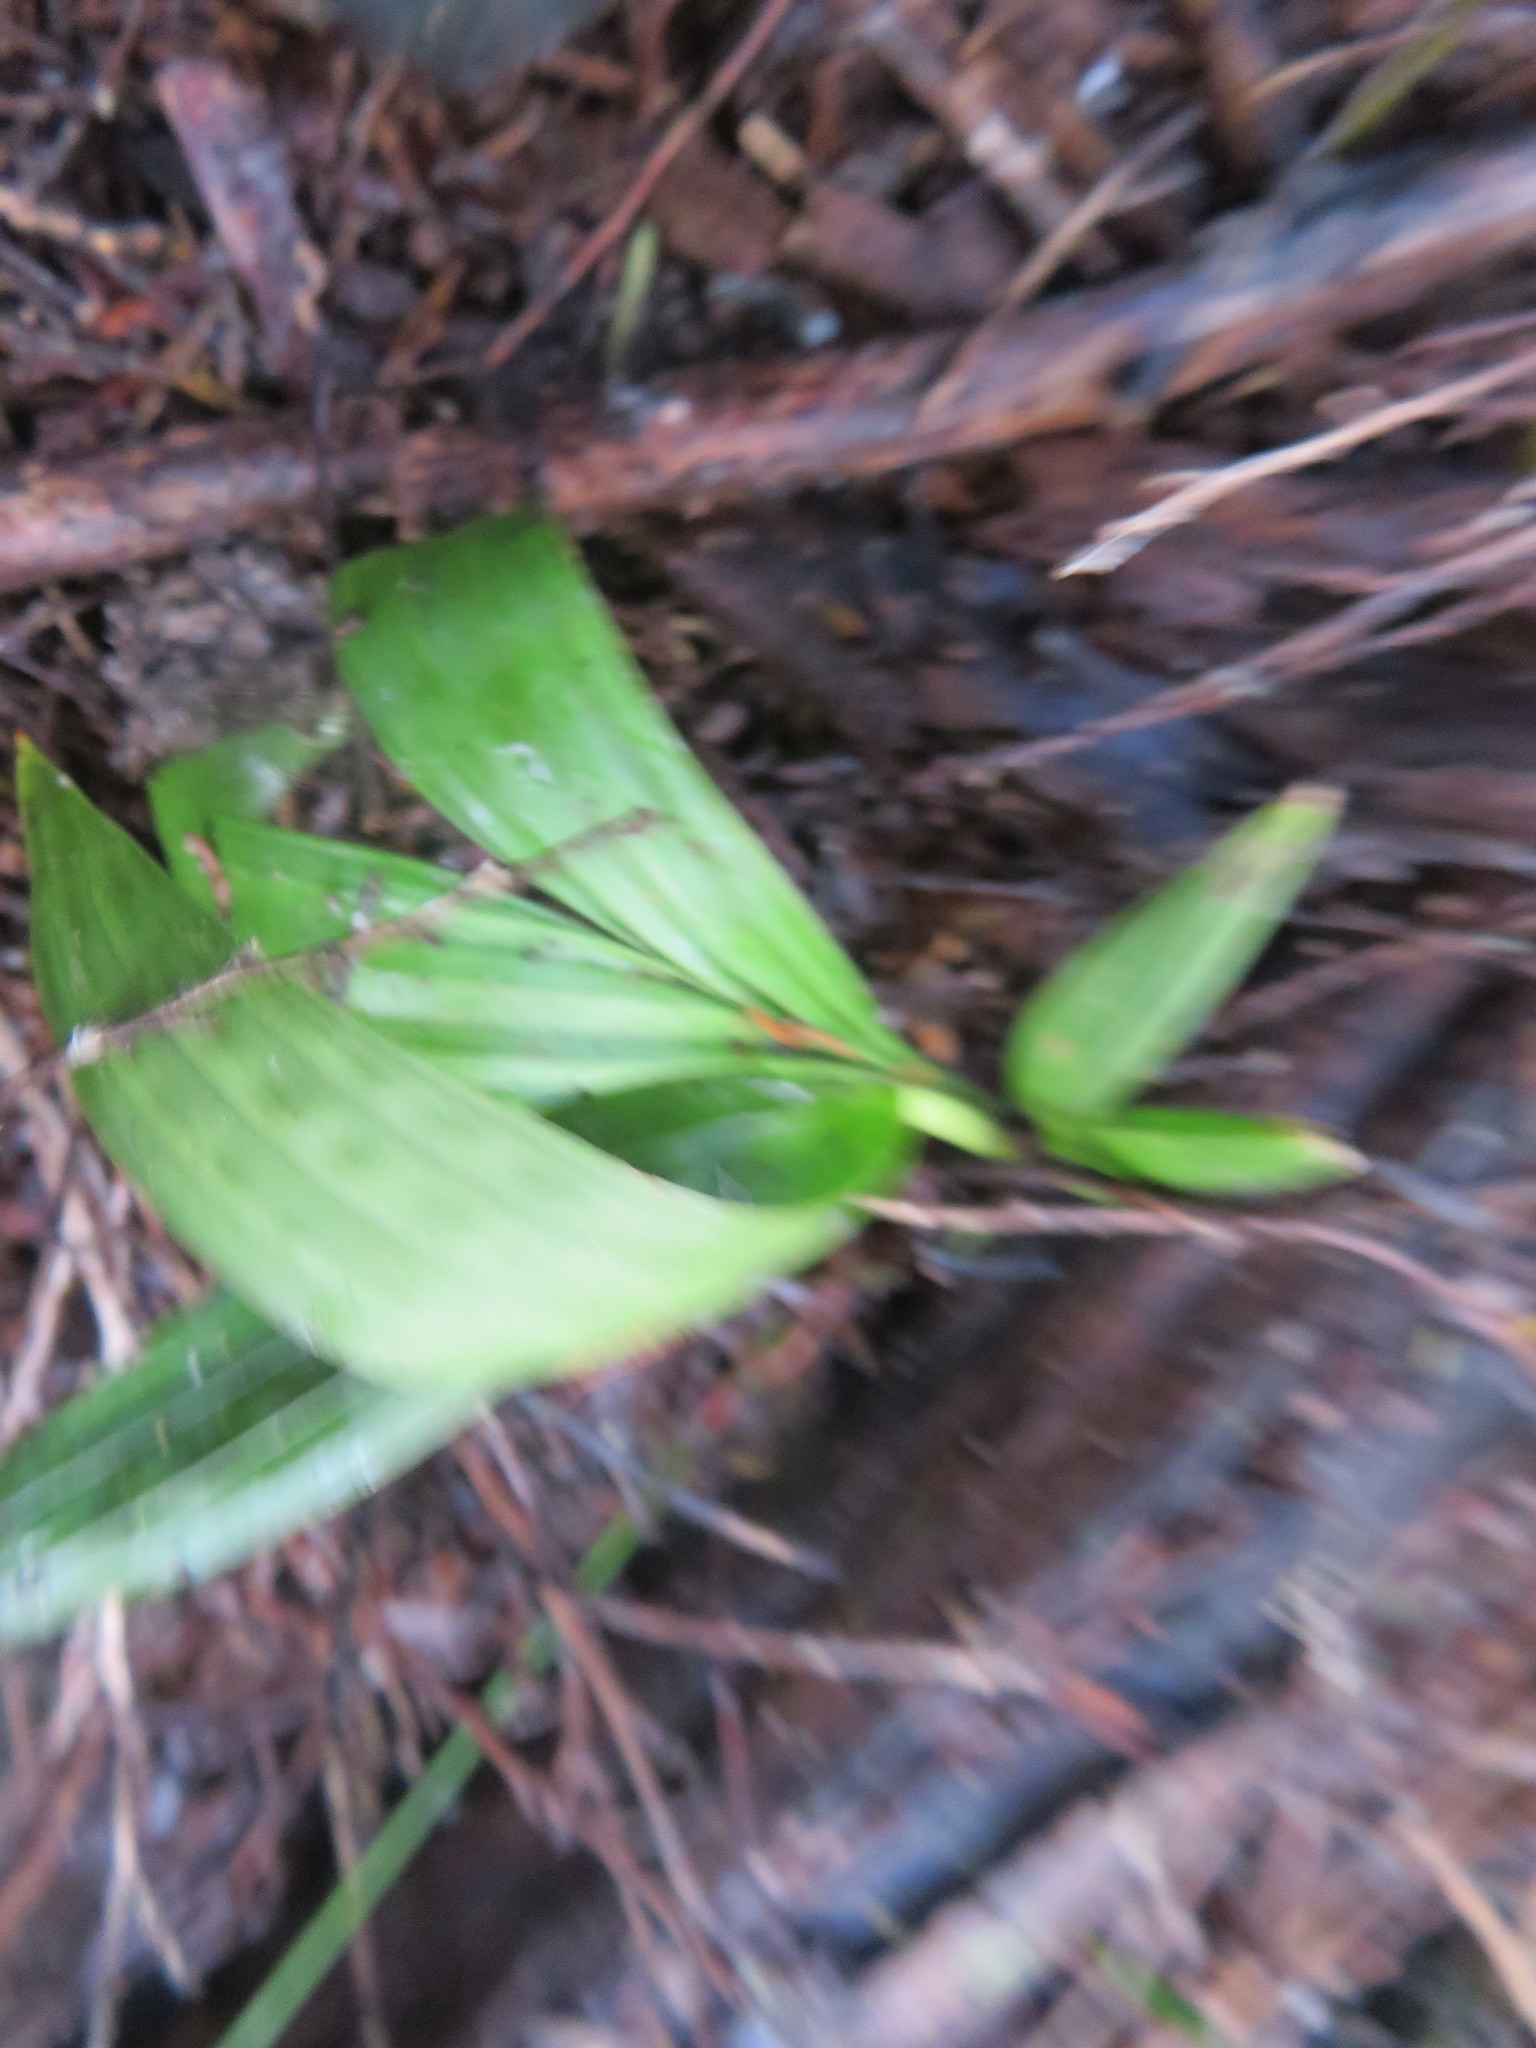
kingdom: Plantae
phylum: Tracheophyta
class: Liliopsida
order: Arecales
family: Arecaceae
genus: Archontophoenix
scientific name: Archontophoenix cunninghamiana
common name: Piccabeen bangalow palm
